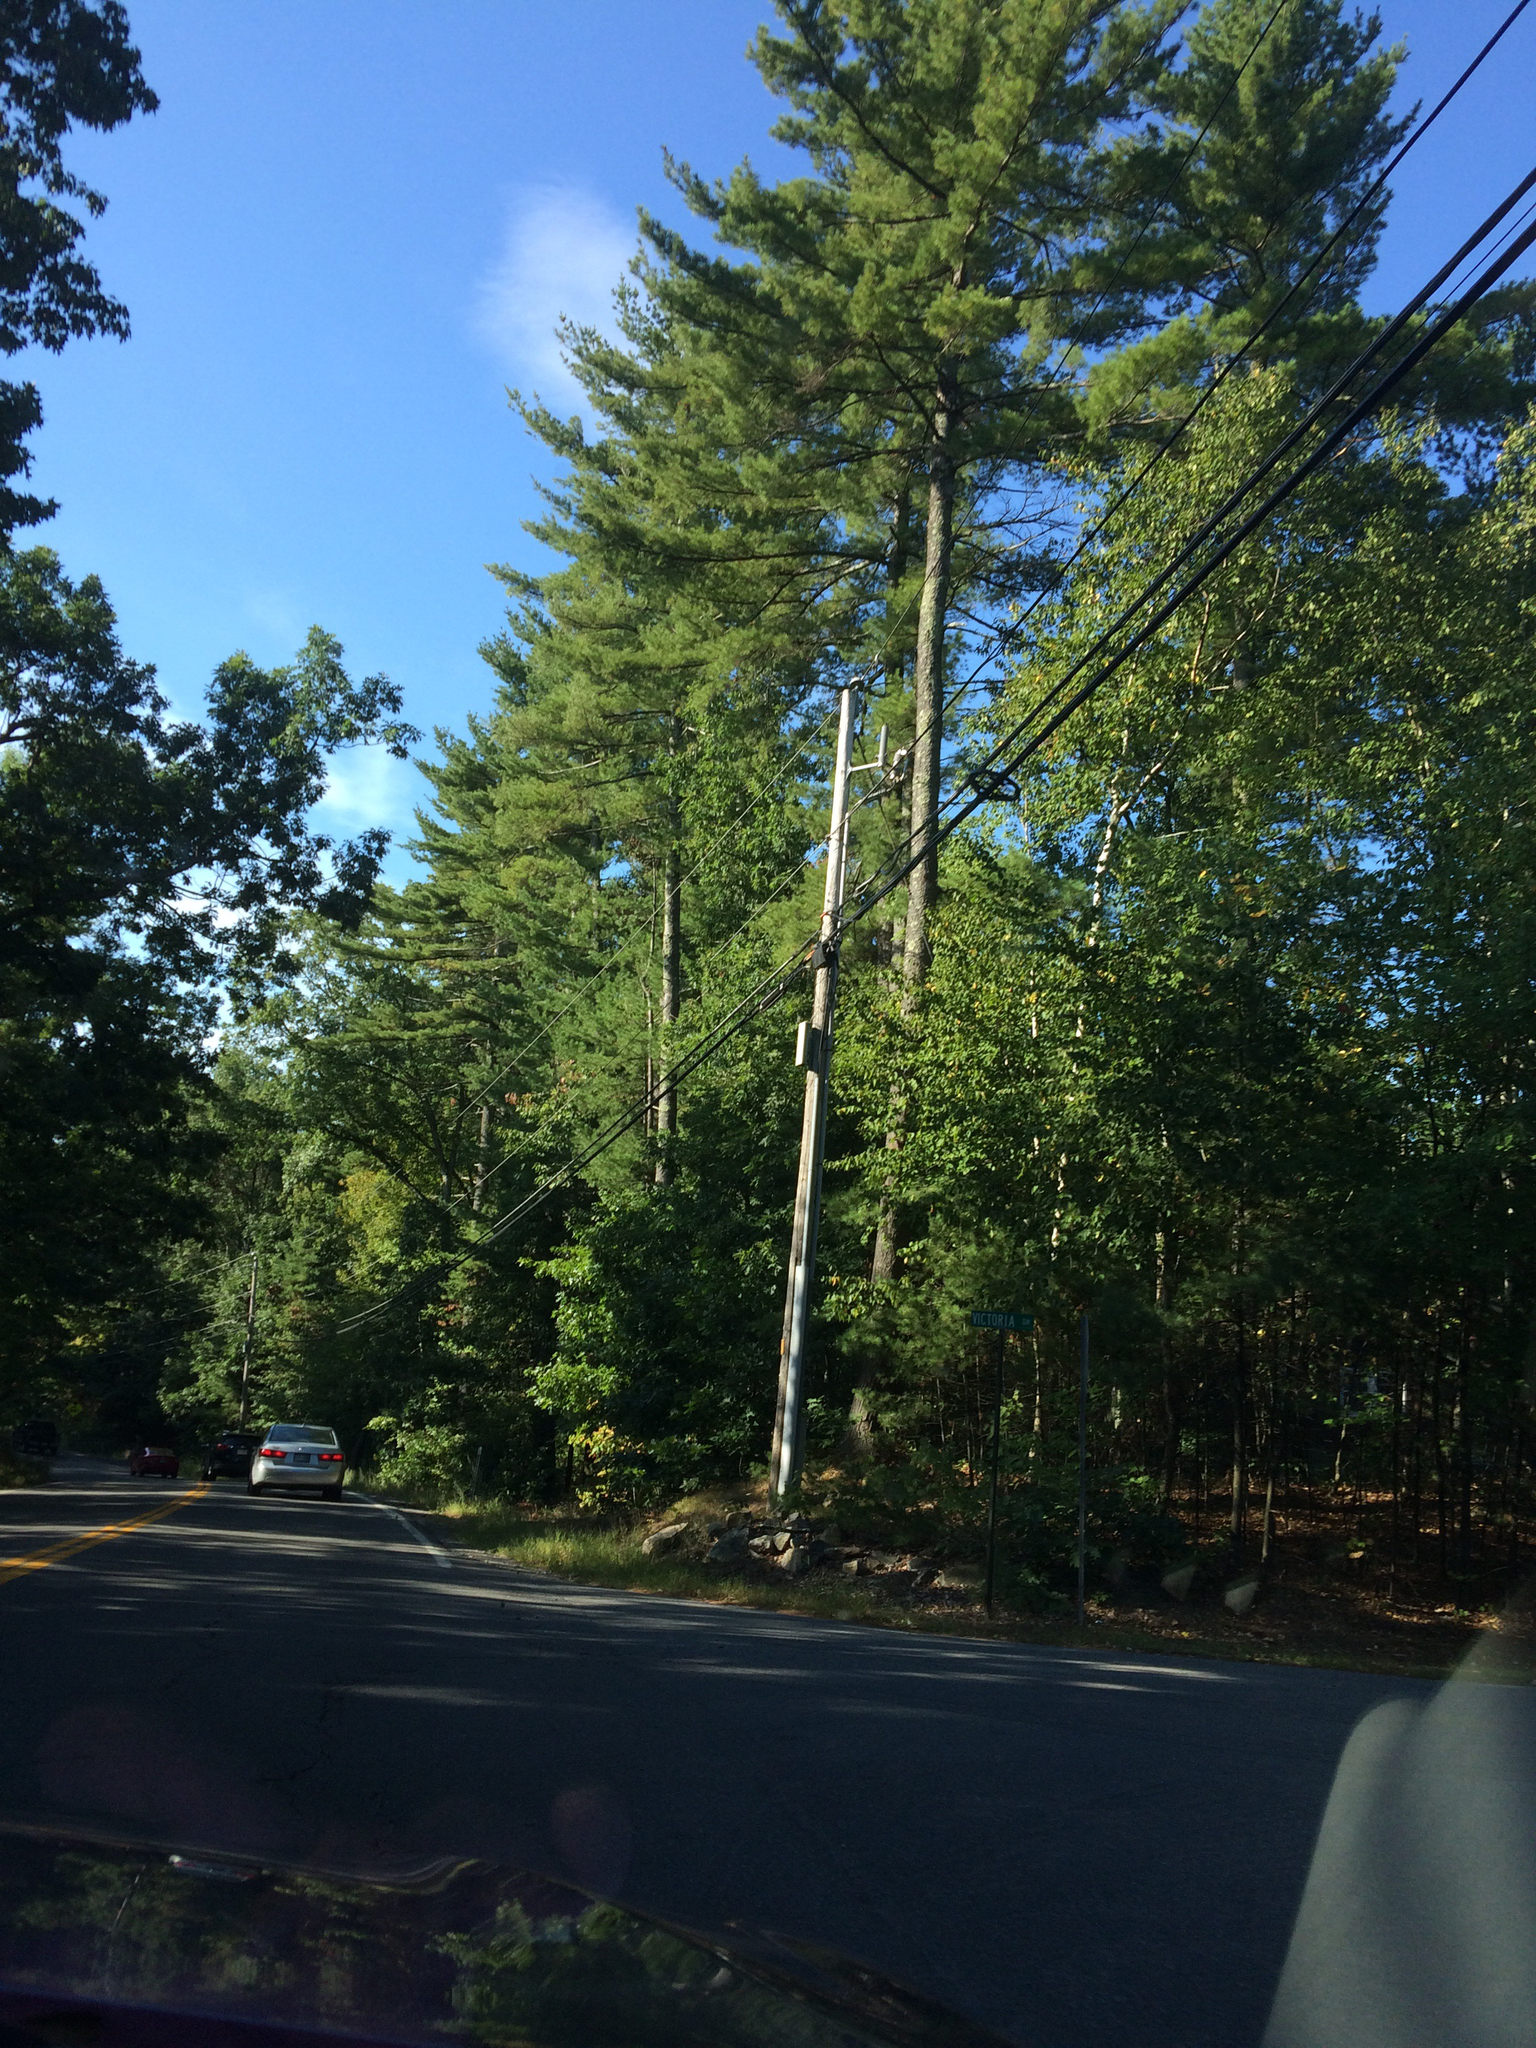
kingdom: Plantae
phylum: Tracheophyta
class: Pinopsida
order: Pinales
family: Pinaceae
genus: Pinus
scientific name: Pinus strobus
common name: Weymouth pine
